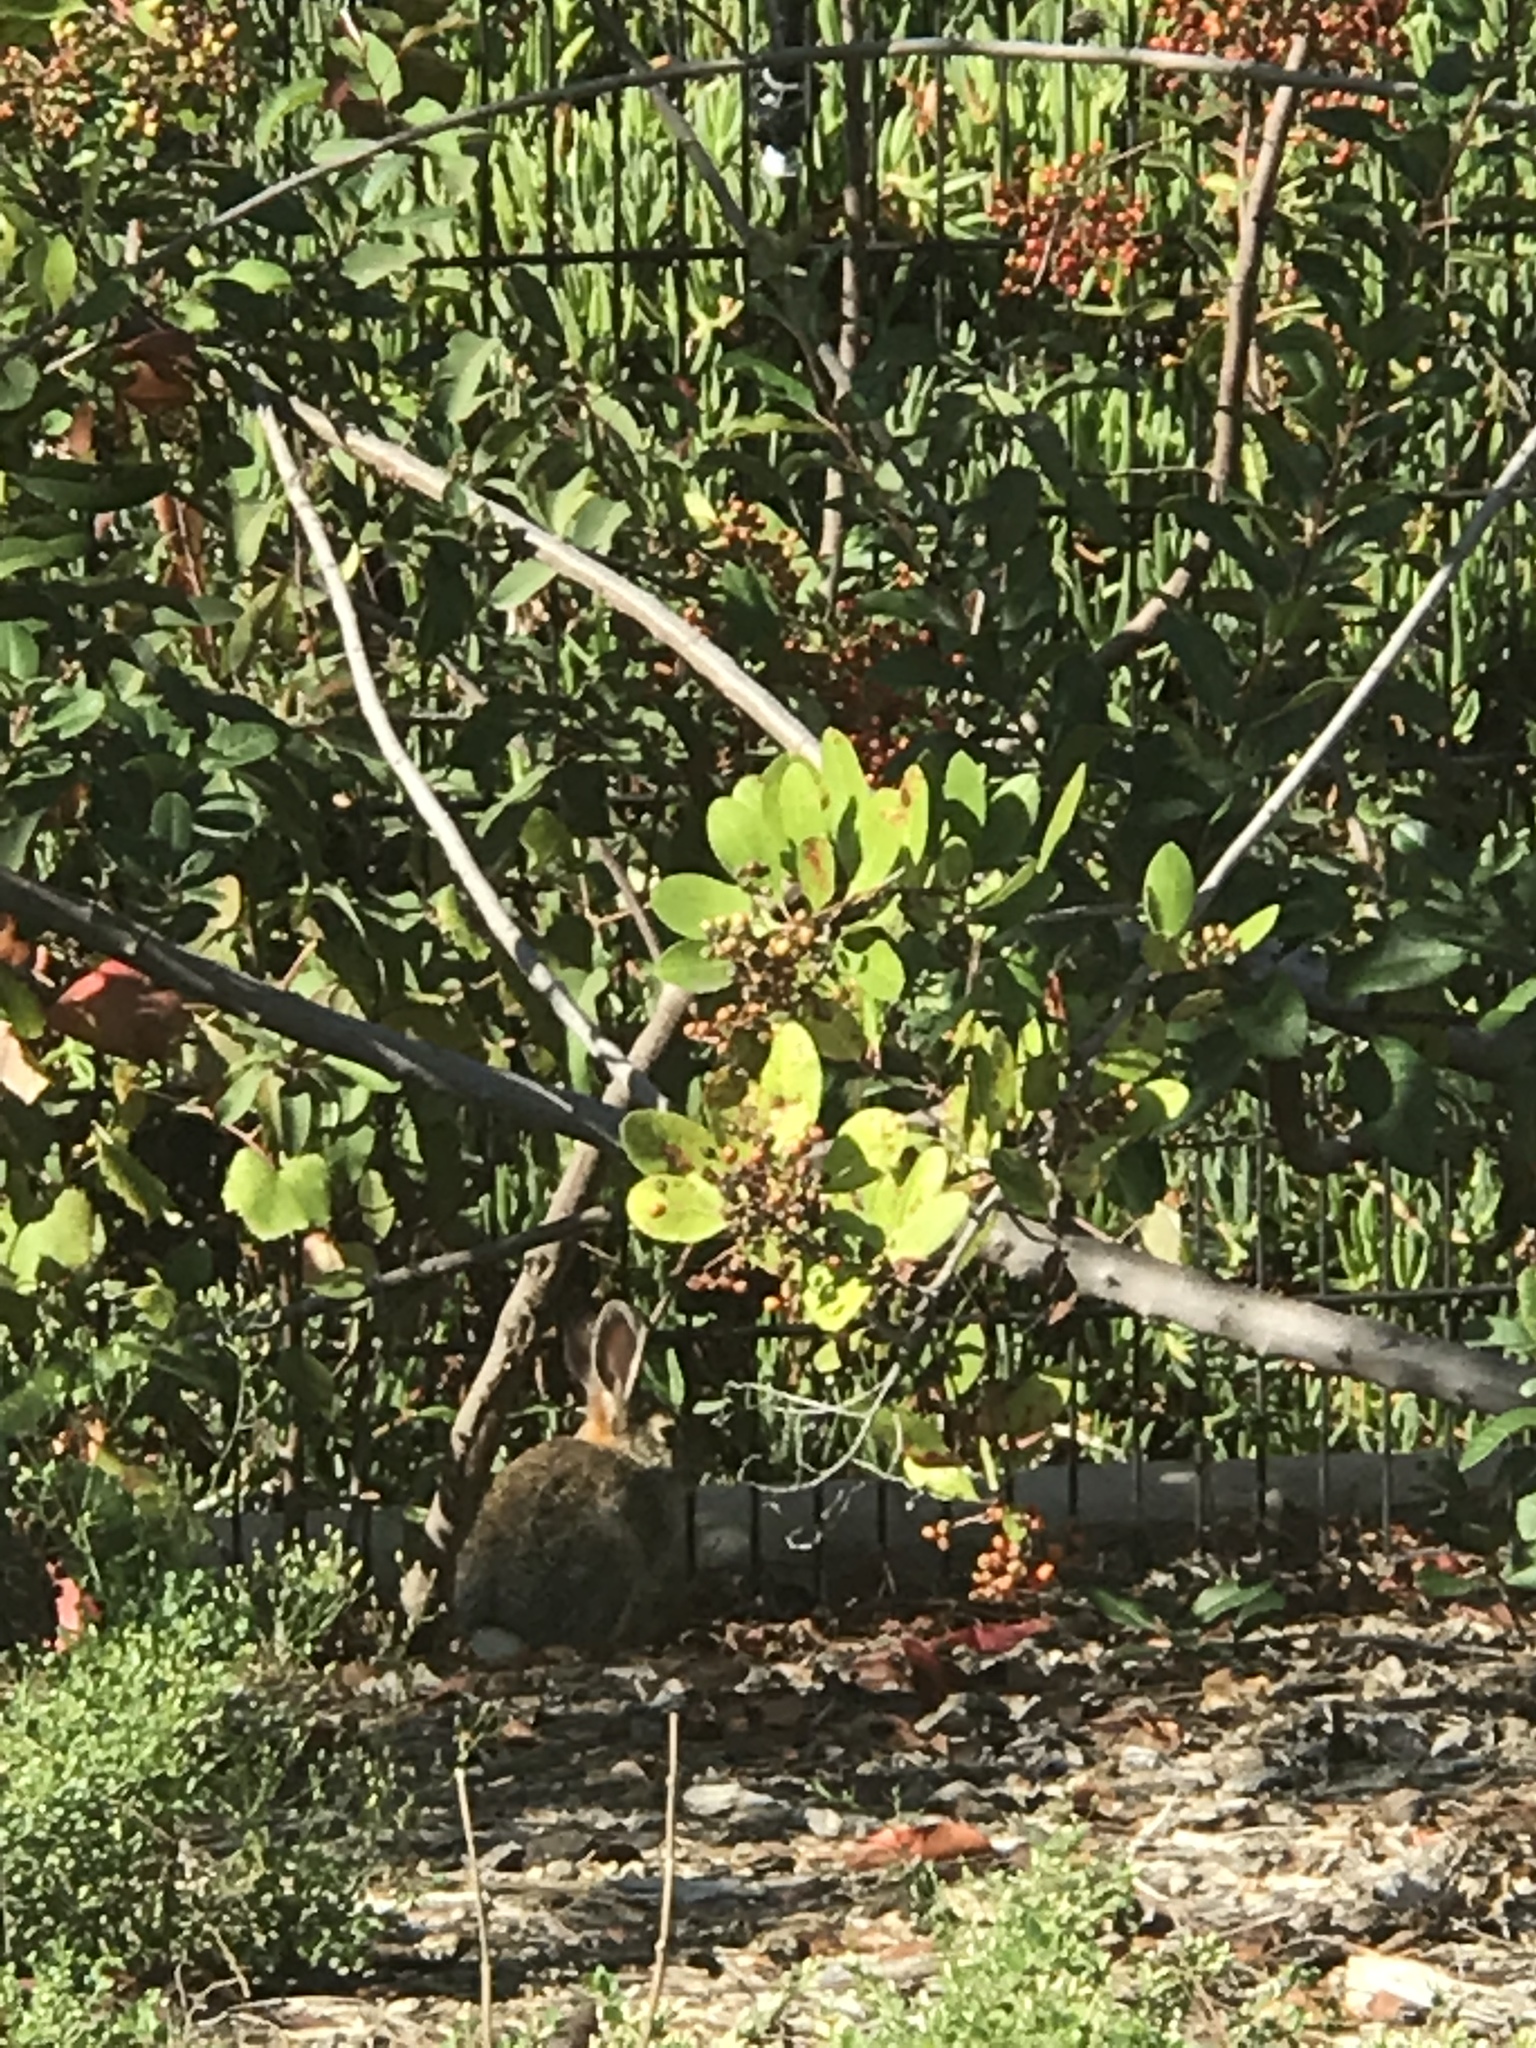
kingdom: Animalia
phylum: Chordata
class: Mammalia
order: Lagomorpha
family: Leporidae
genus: Sylvilagus
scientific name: Sylvilagus audubonii
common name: Desert cottontail
